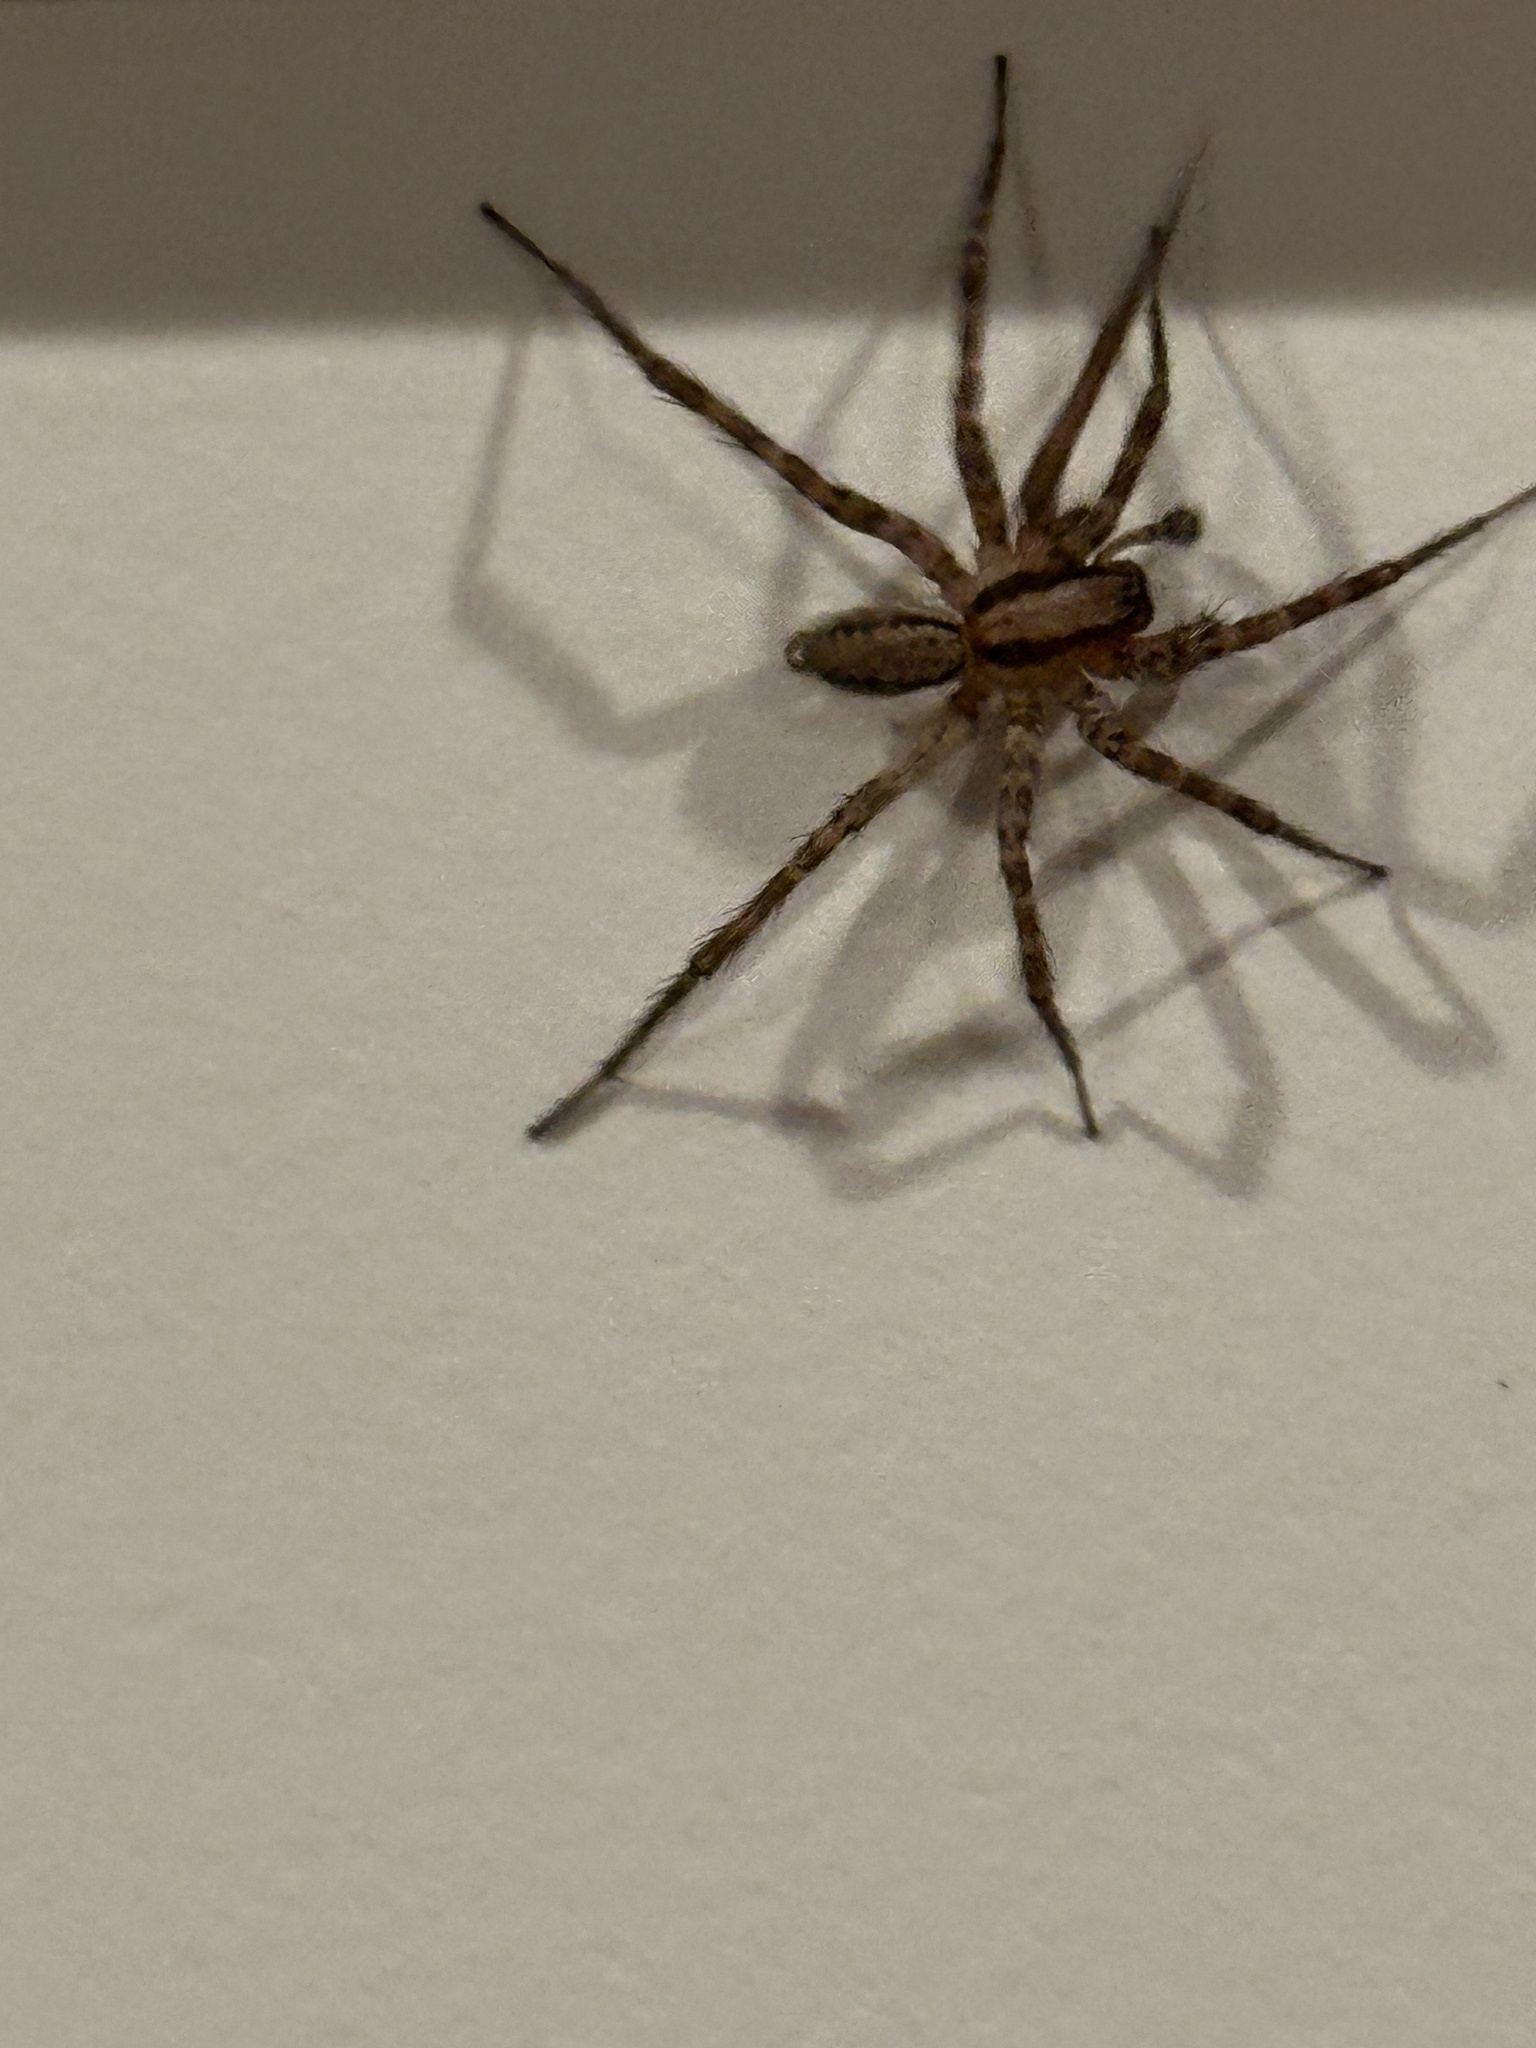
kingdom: Animalia
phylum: Arthropoda
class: Arachnida
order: Araneae
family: Agelenidae
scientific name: Agelenidae
